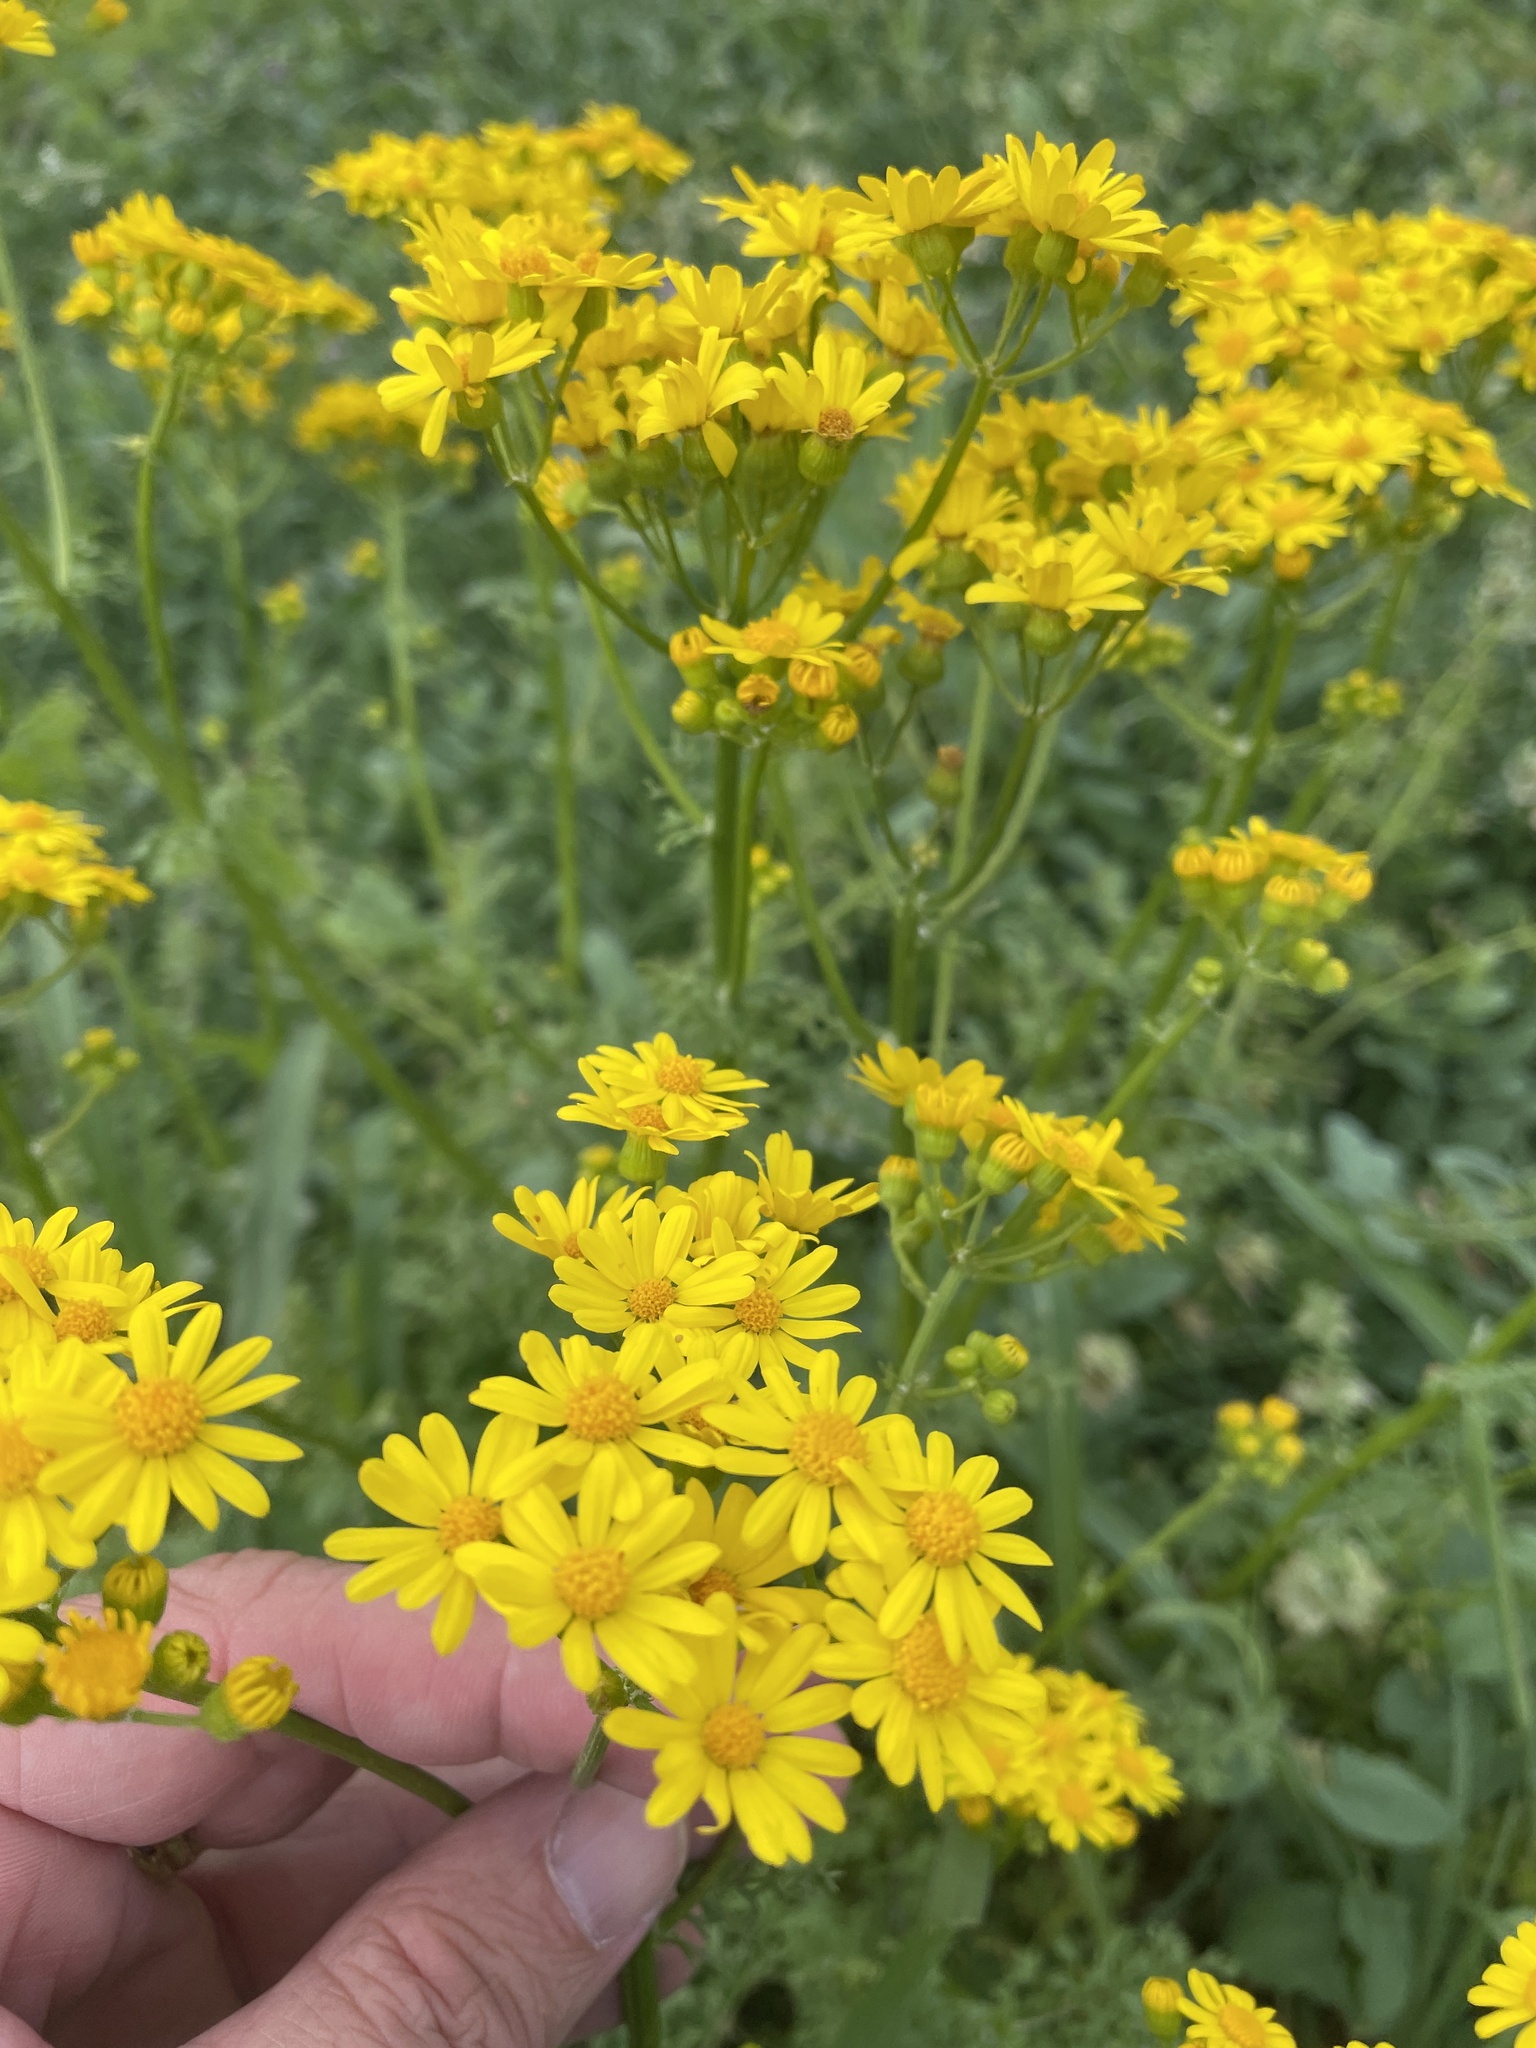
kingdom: Plantae
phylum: Tracheophyta
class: Magnoliopsida
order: Asterales
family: Asteraceae
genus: Packera
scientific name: Packera tampicana
